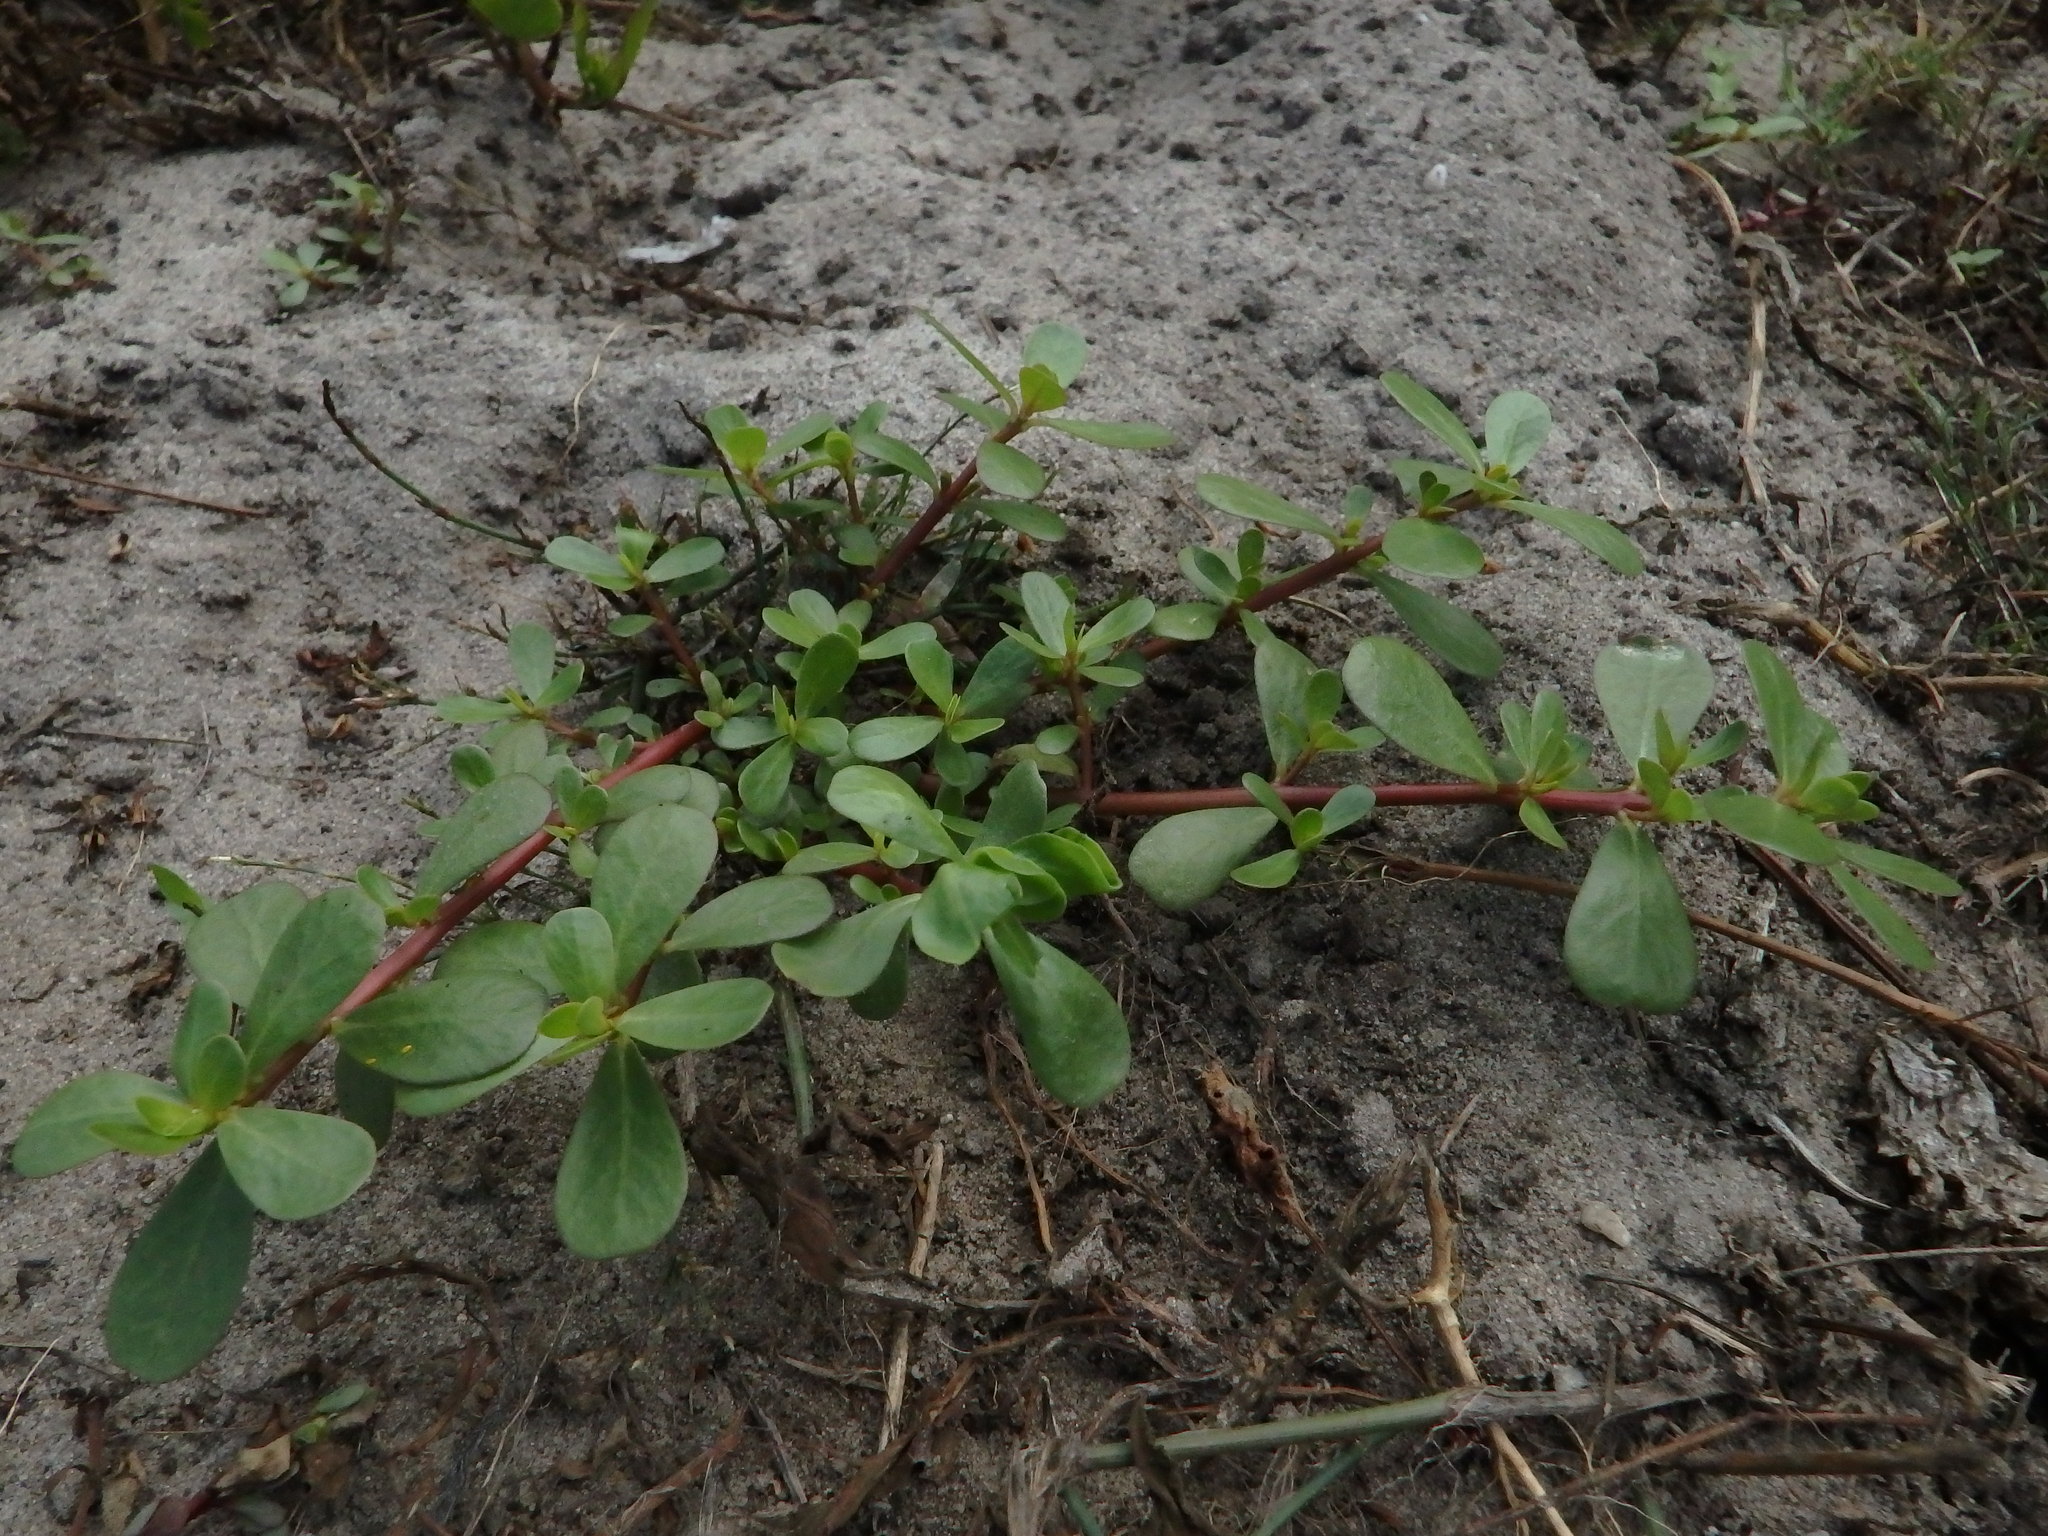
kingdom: Plantae
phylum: Tracheophyta
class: Magnoliopsida
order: Caryophyllales
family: Portulacaceae
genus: Portulaca
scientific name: Portulaca oleracea
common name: Common purslane
